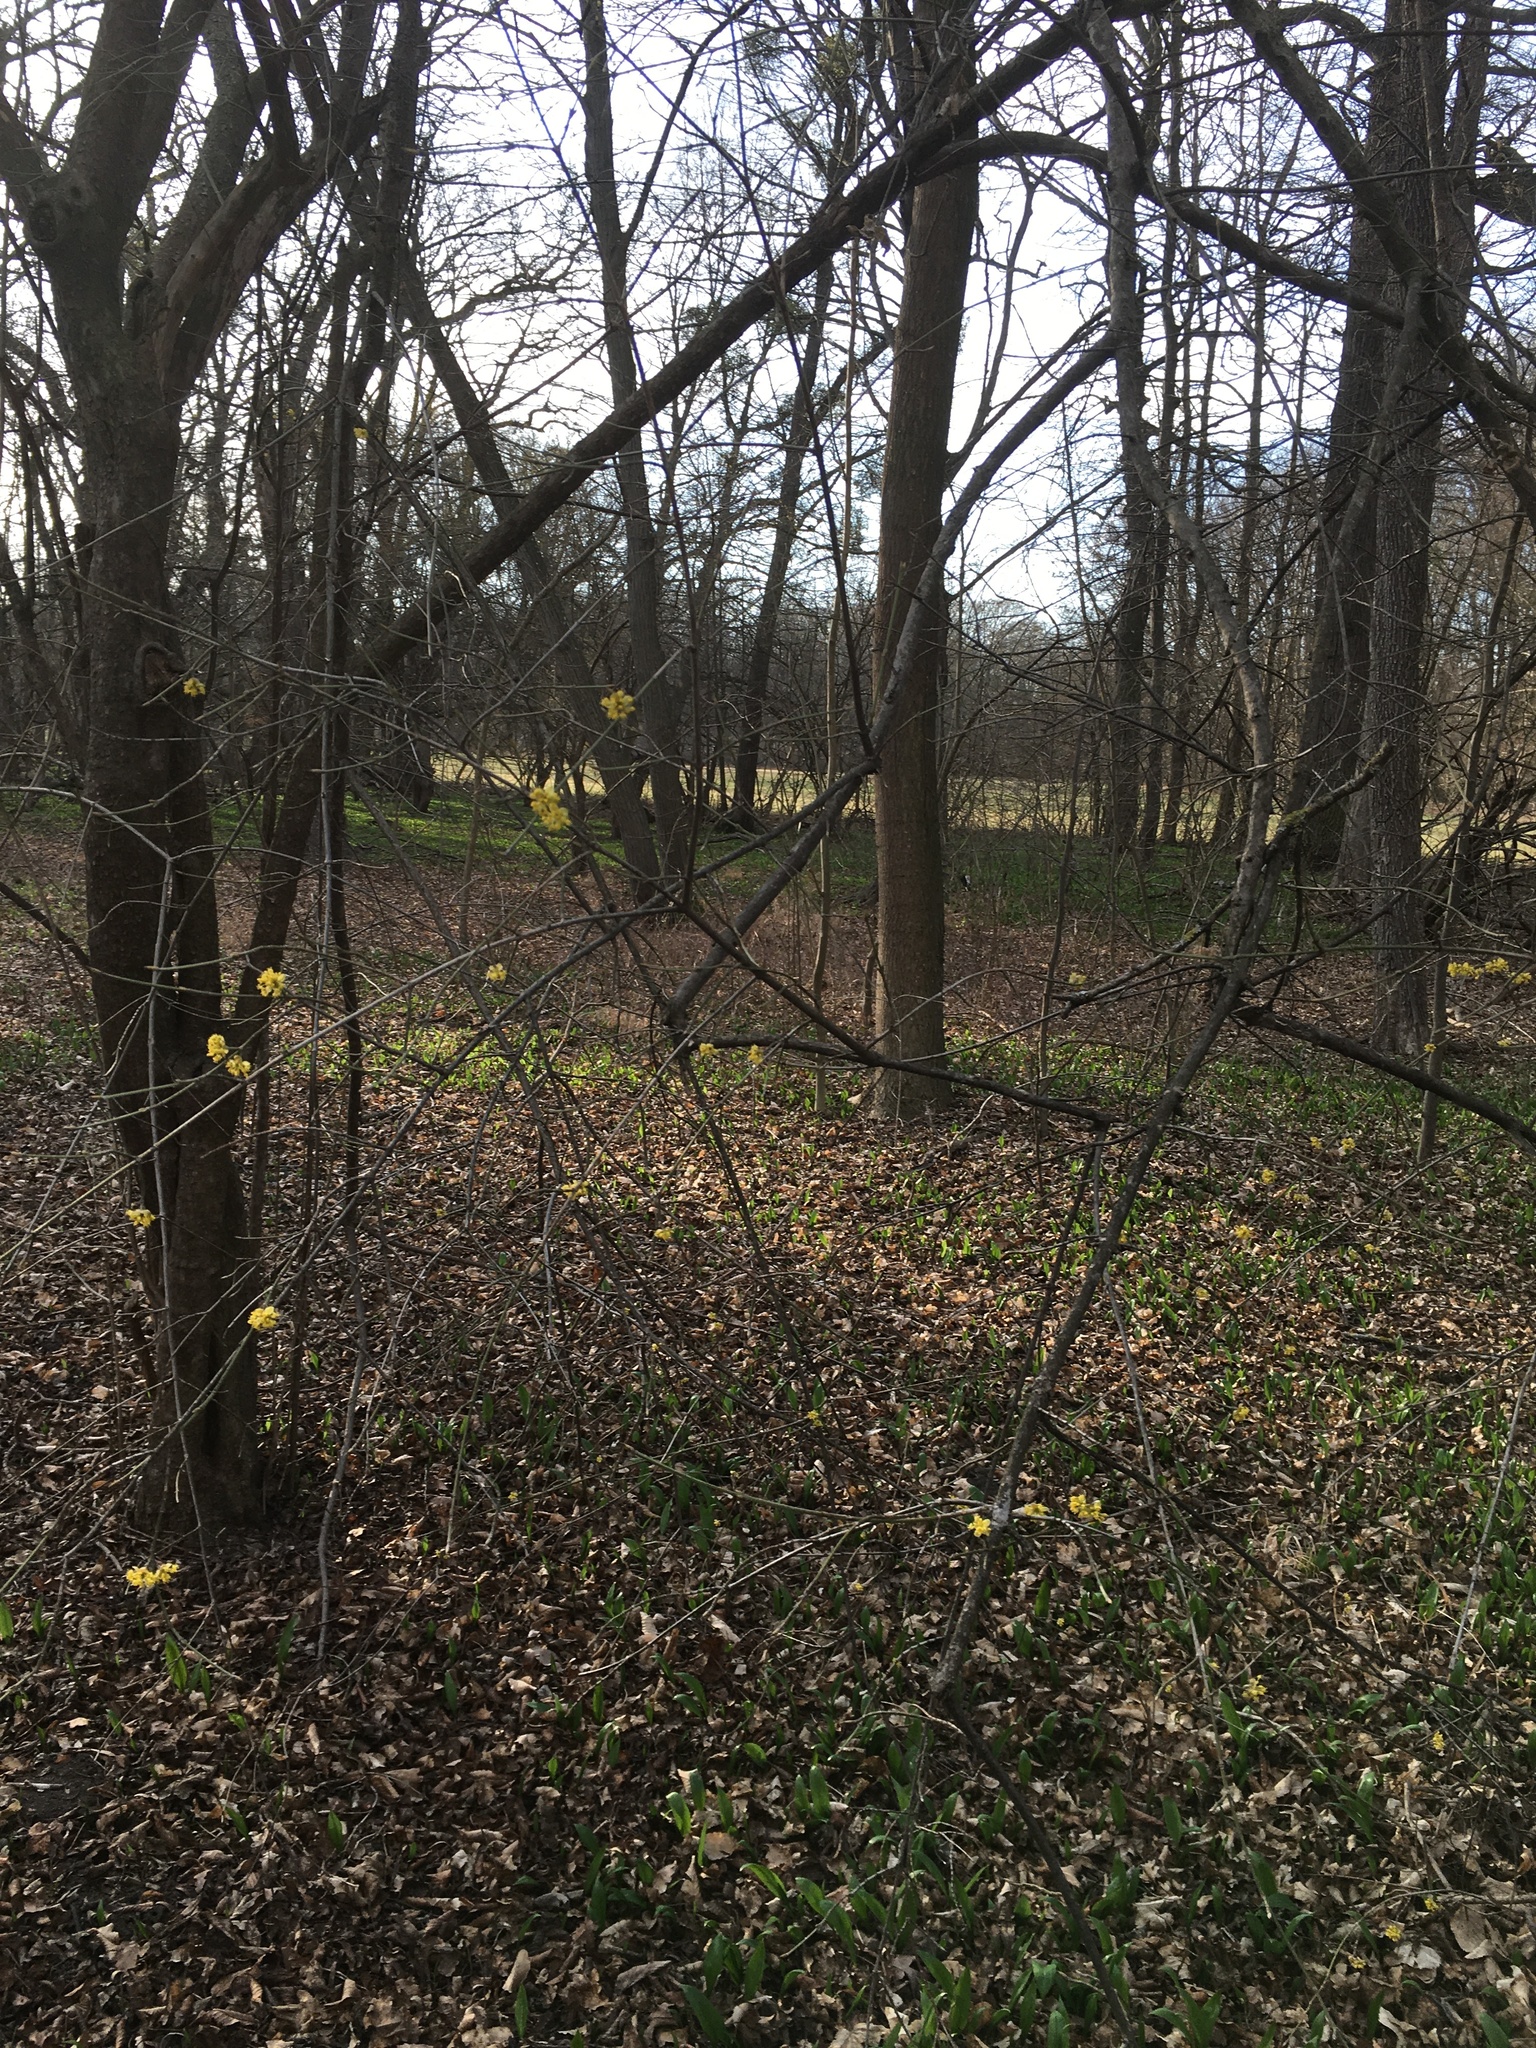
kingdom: Plantae
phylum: Tracheophyta
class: Magnoliopsida
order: Cornales
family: Cornaceae
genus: Cornus
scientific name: Cornus mas
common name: Cornelian-cherry
